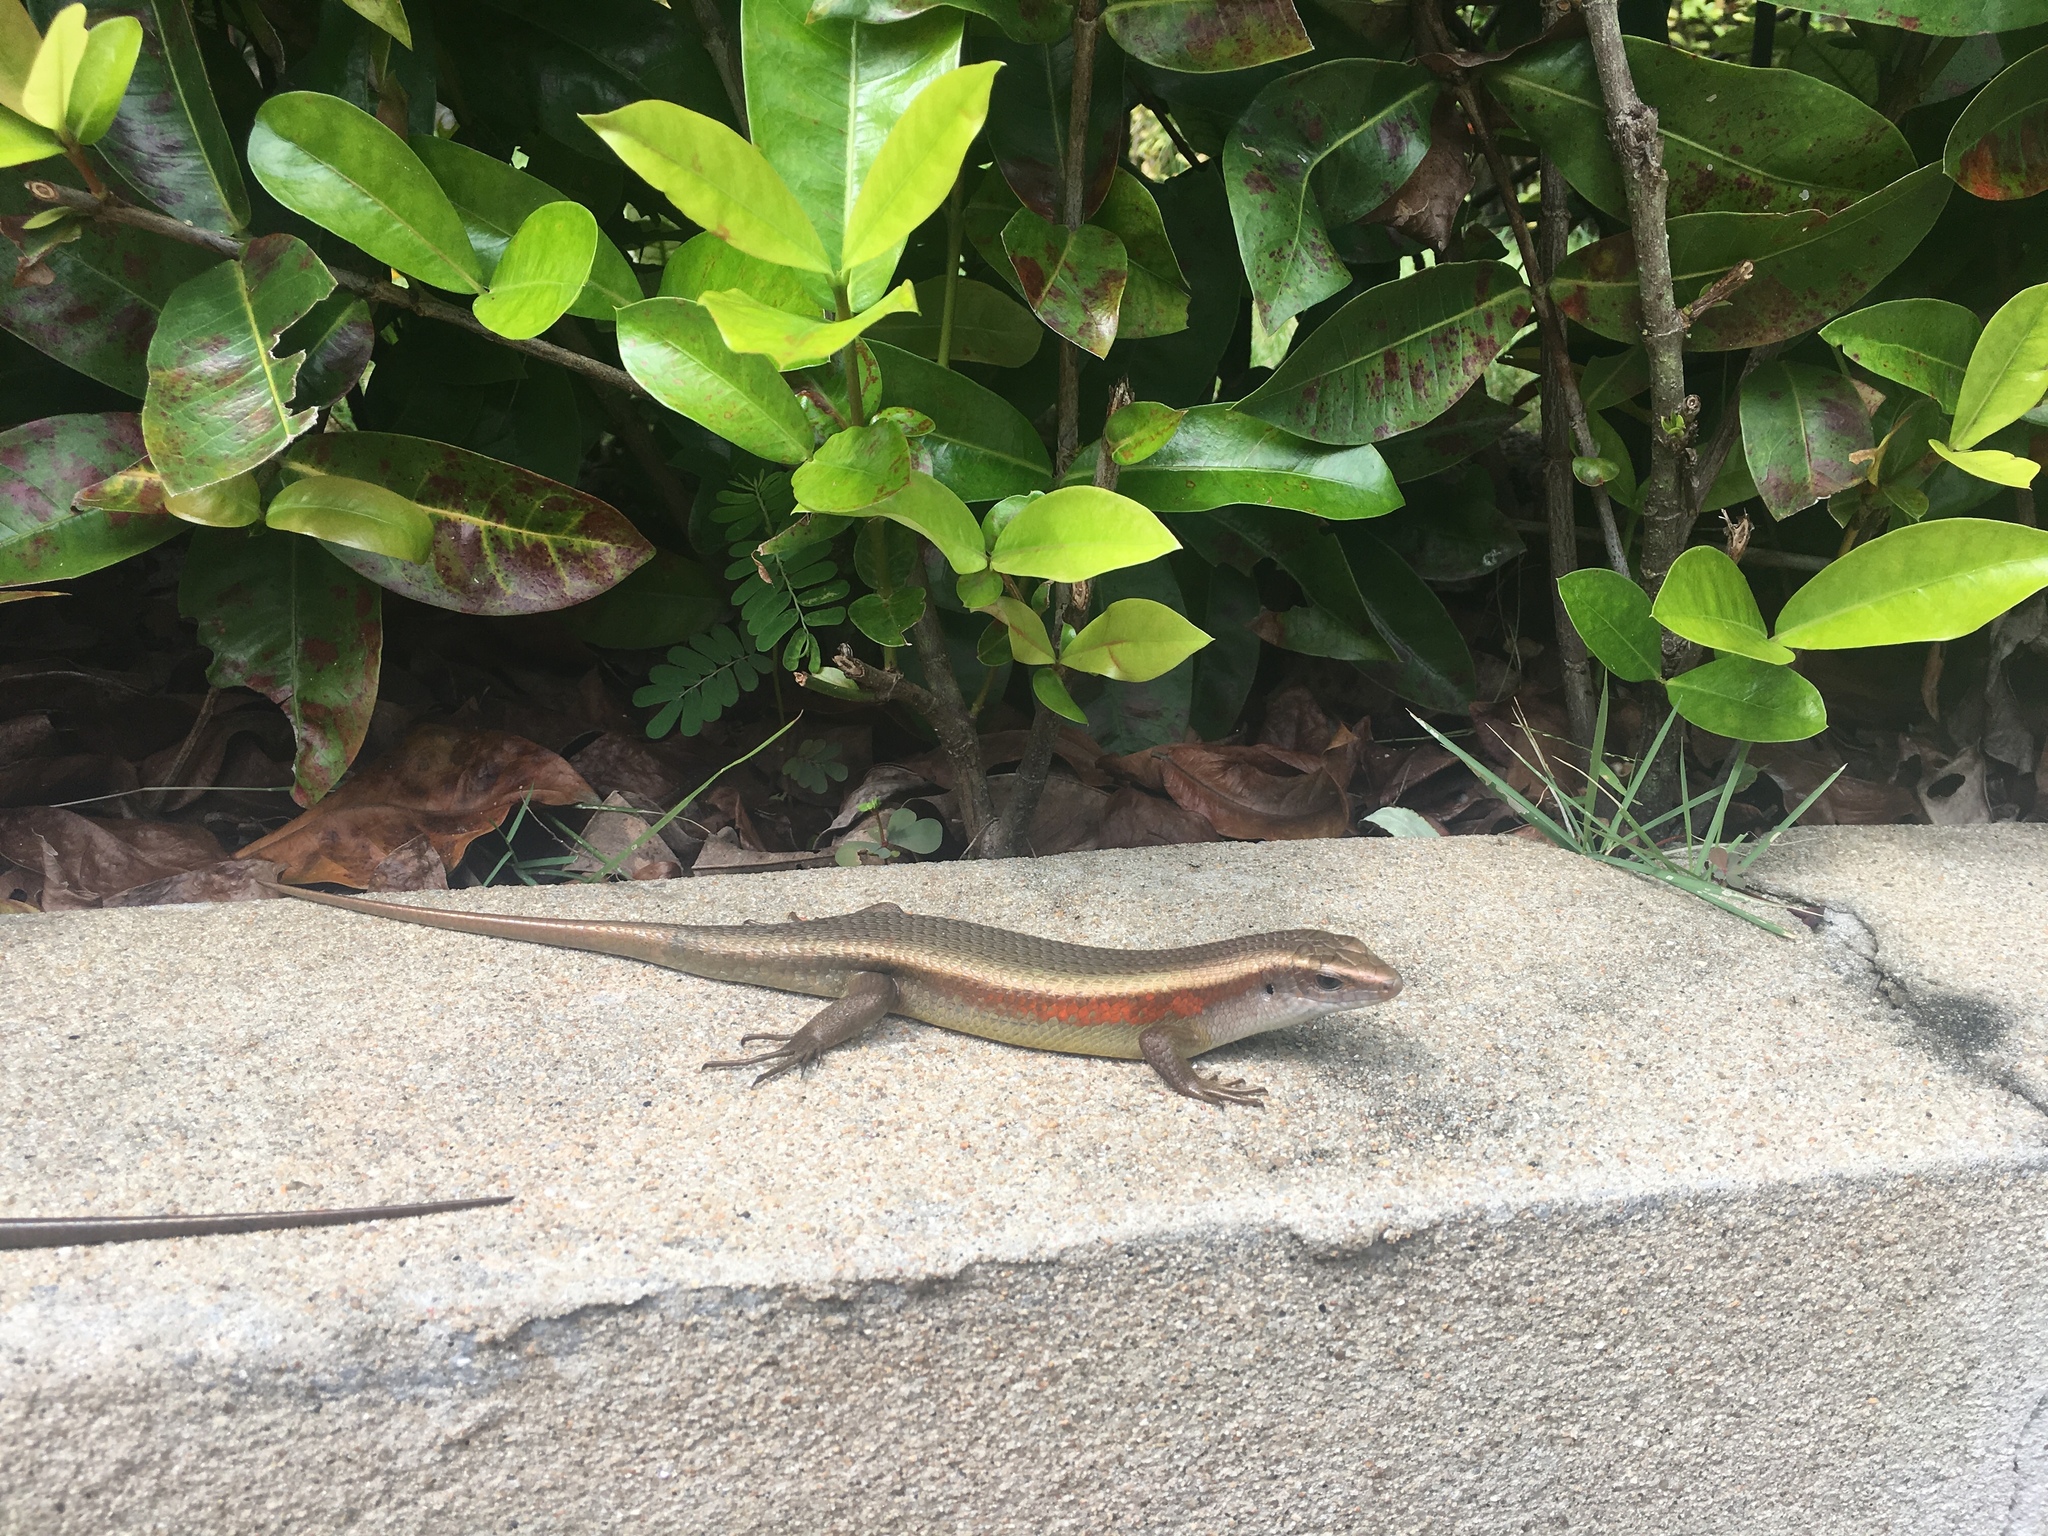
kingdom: Animalia
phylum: Chordata
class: Squamata
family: Scincidae
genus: Eutropis
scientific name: Eutropis multifasciata
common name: Common mabuya
